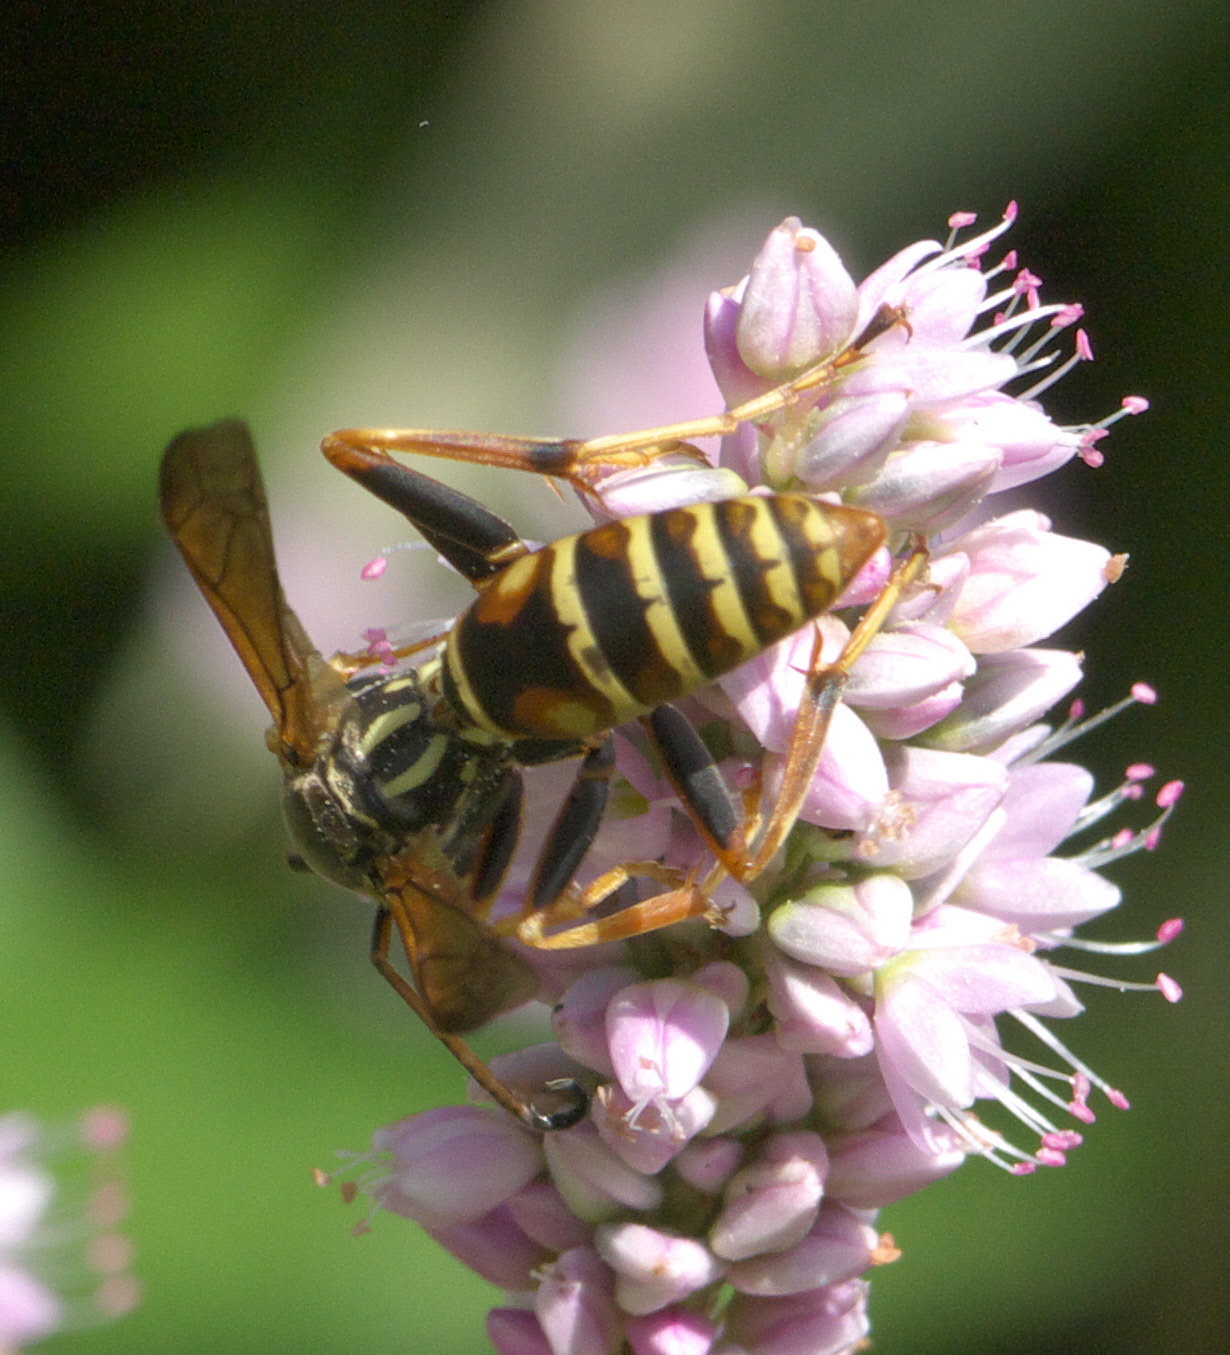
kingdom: Animalia
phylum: Arthropoda
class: Insecta
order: Hymenoptera
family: Eumenidae
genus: Polistes
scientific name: Polistes fuscatus
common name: Dark paper wasp
